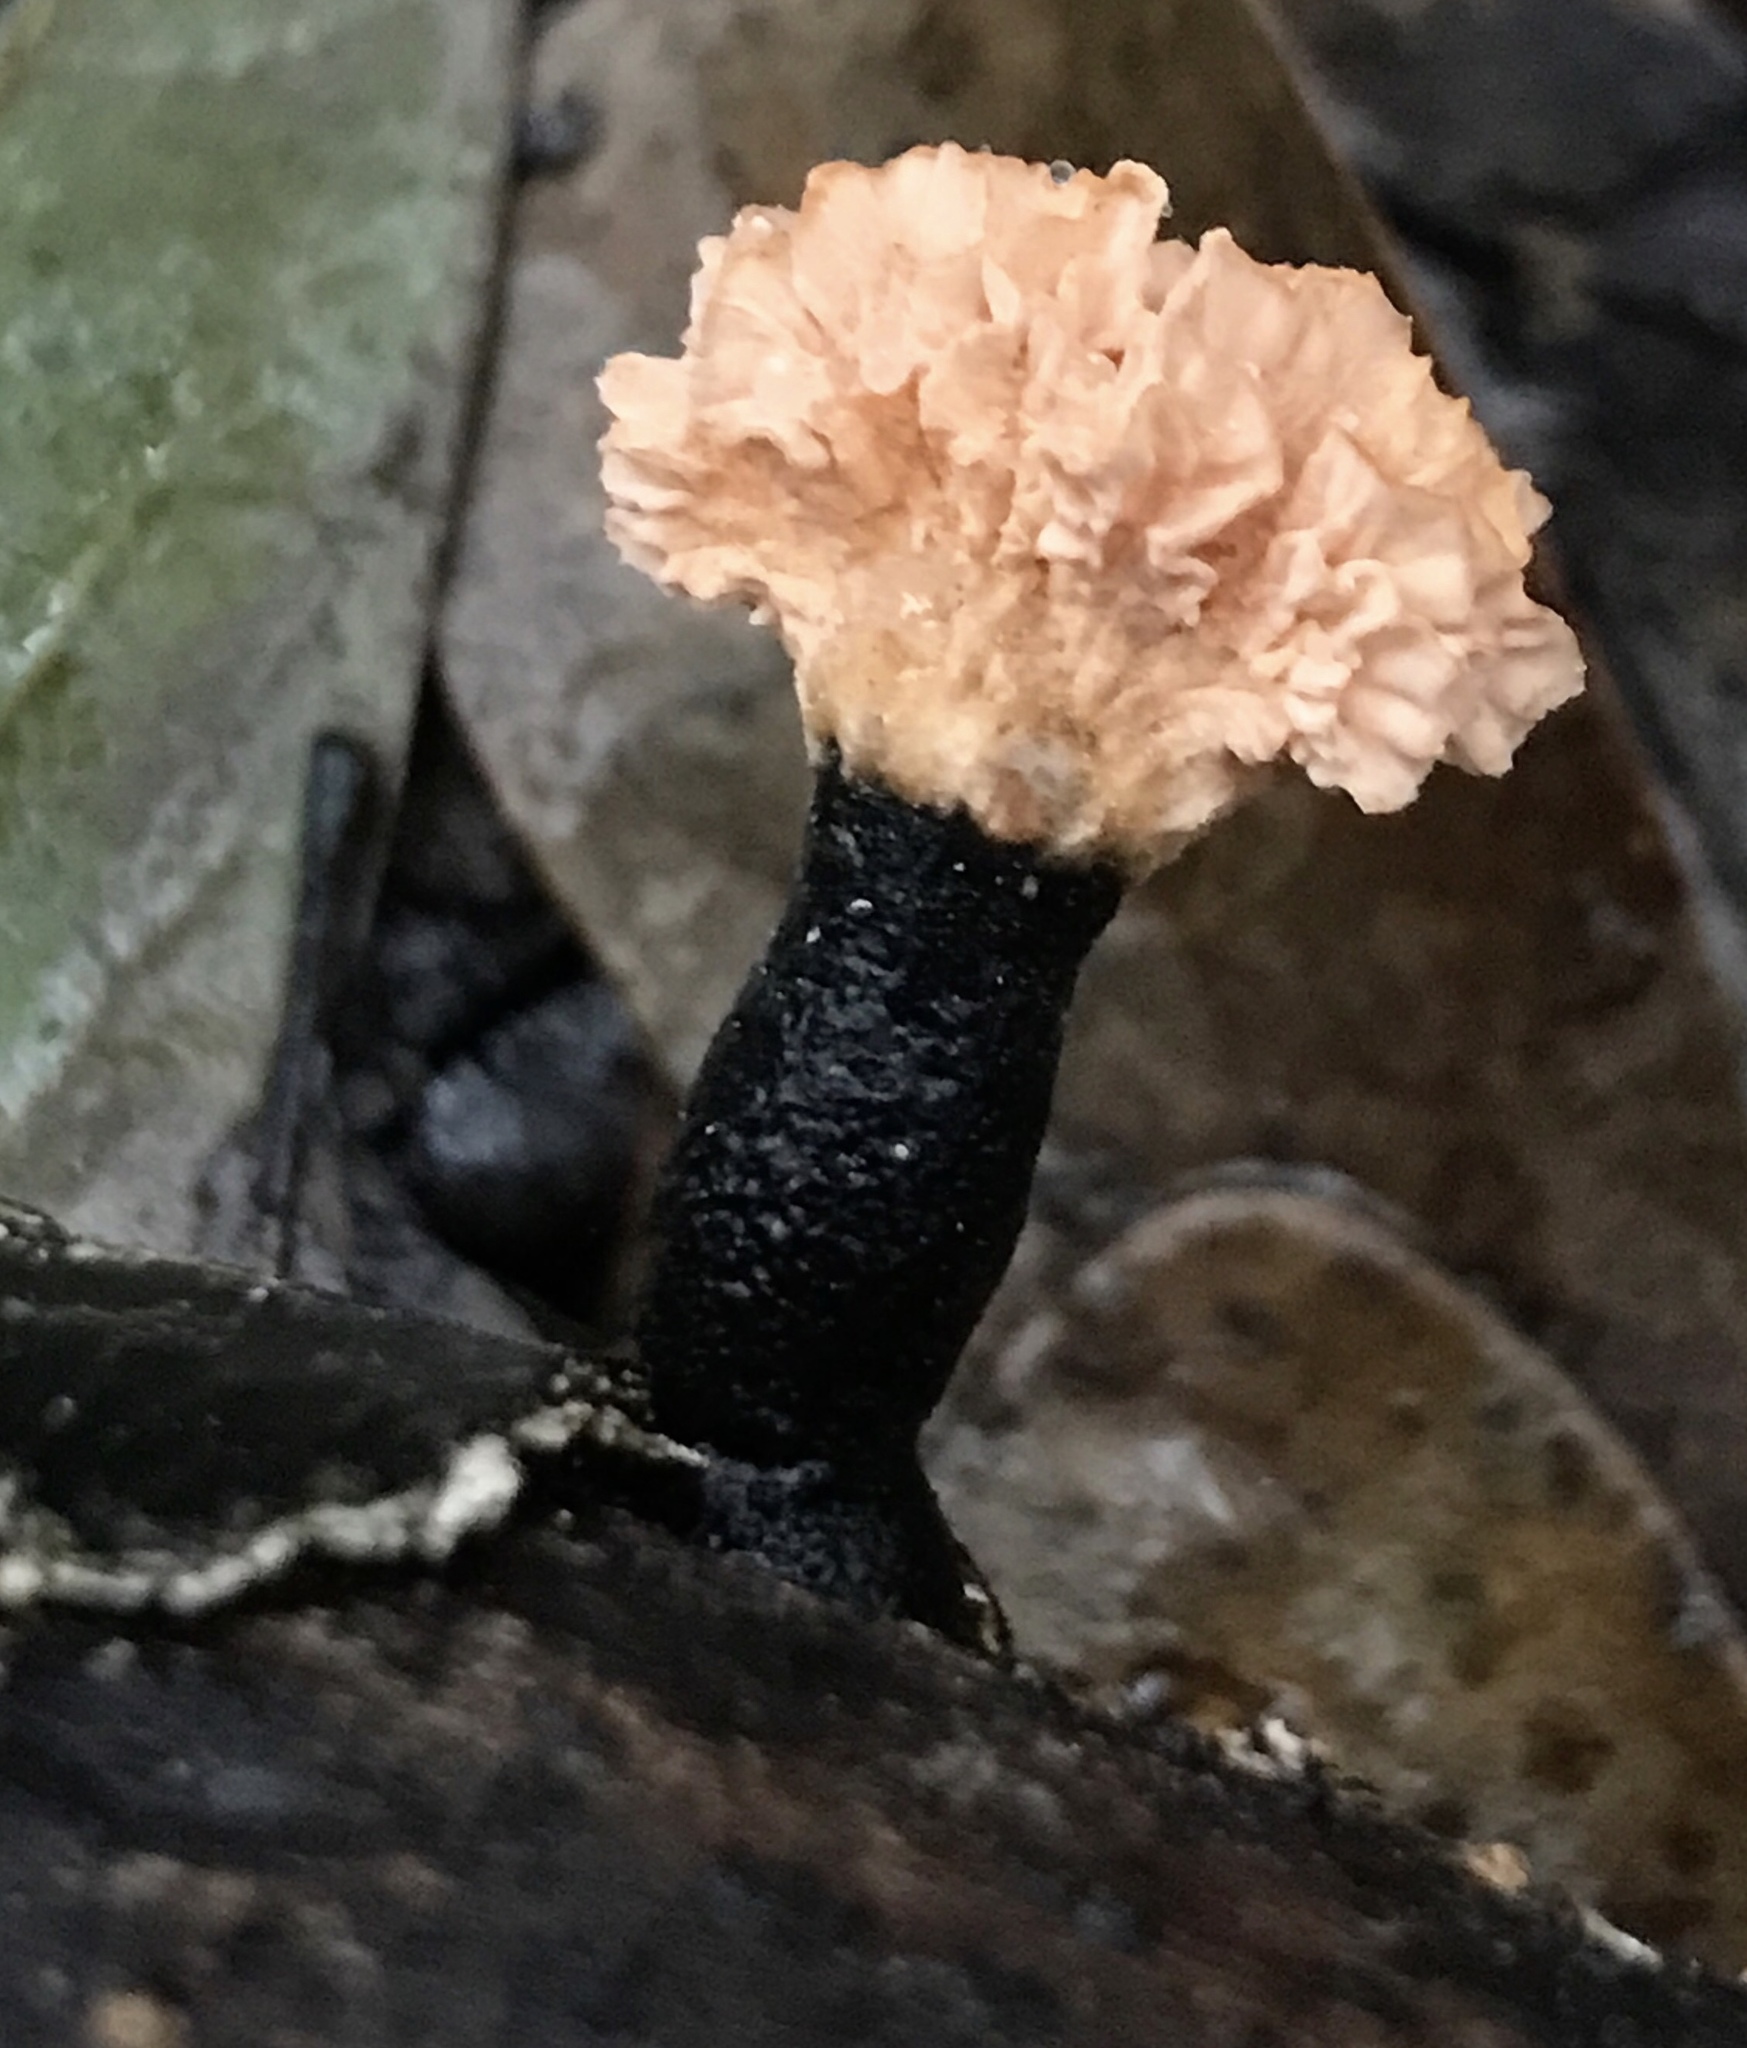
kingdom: Fungi
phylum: Ascomycota
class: Sordariomycetes
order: Xylariales
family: Xylariaceae
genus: Xylaria
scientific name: Xylaria cubensis
